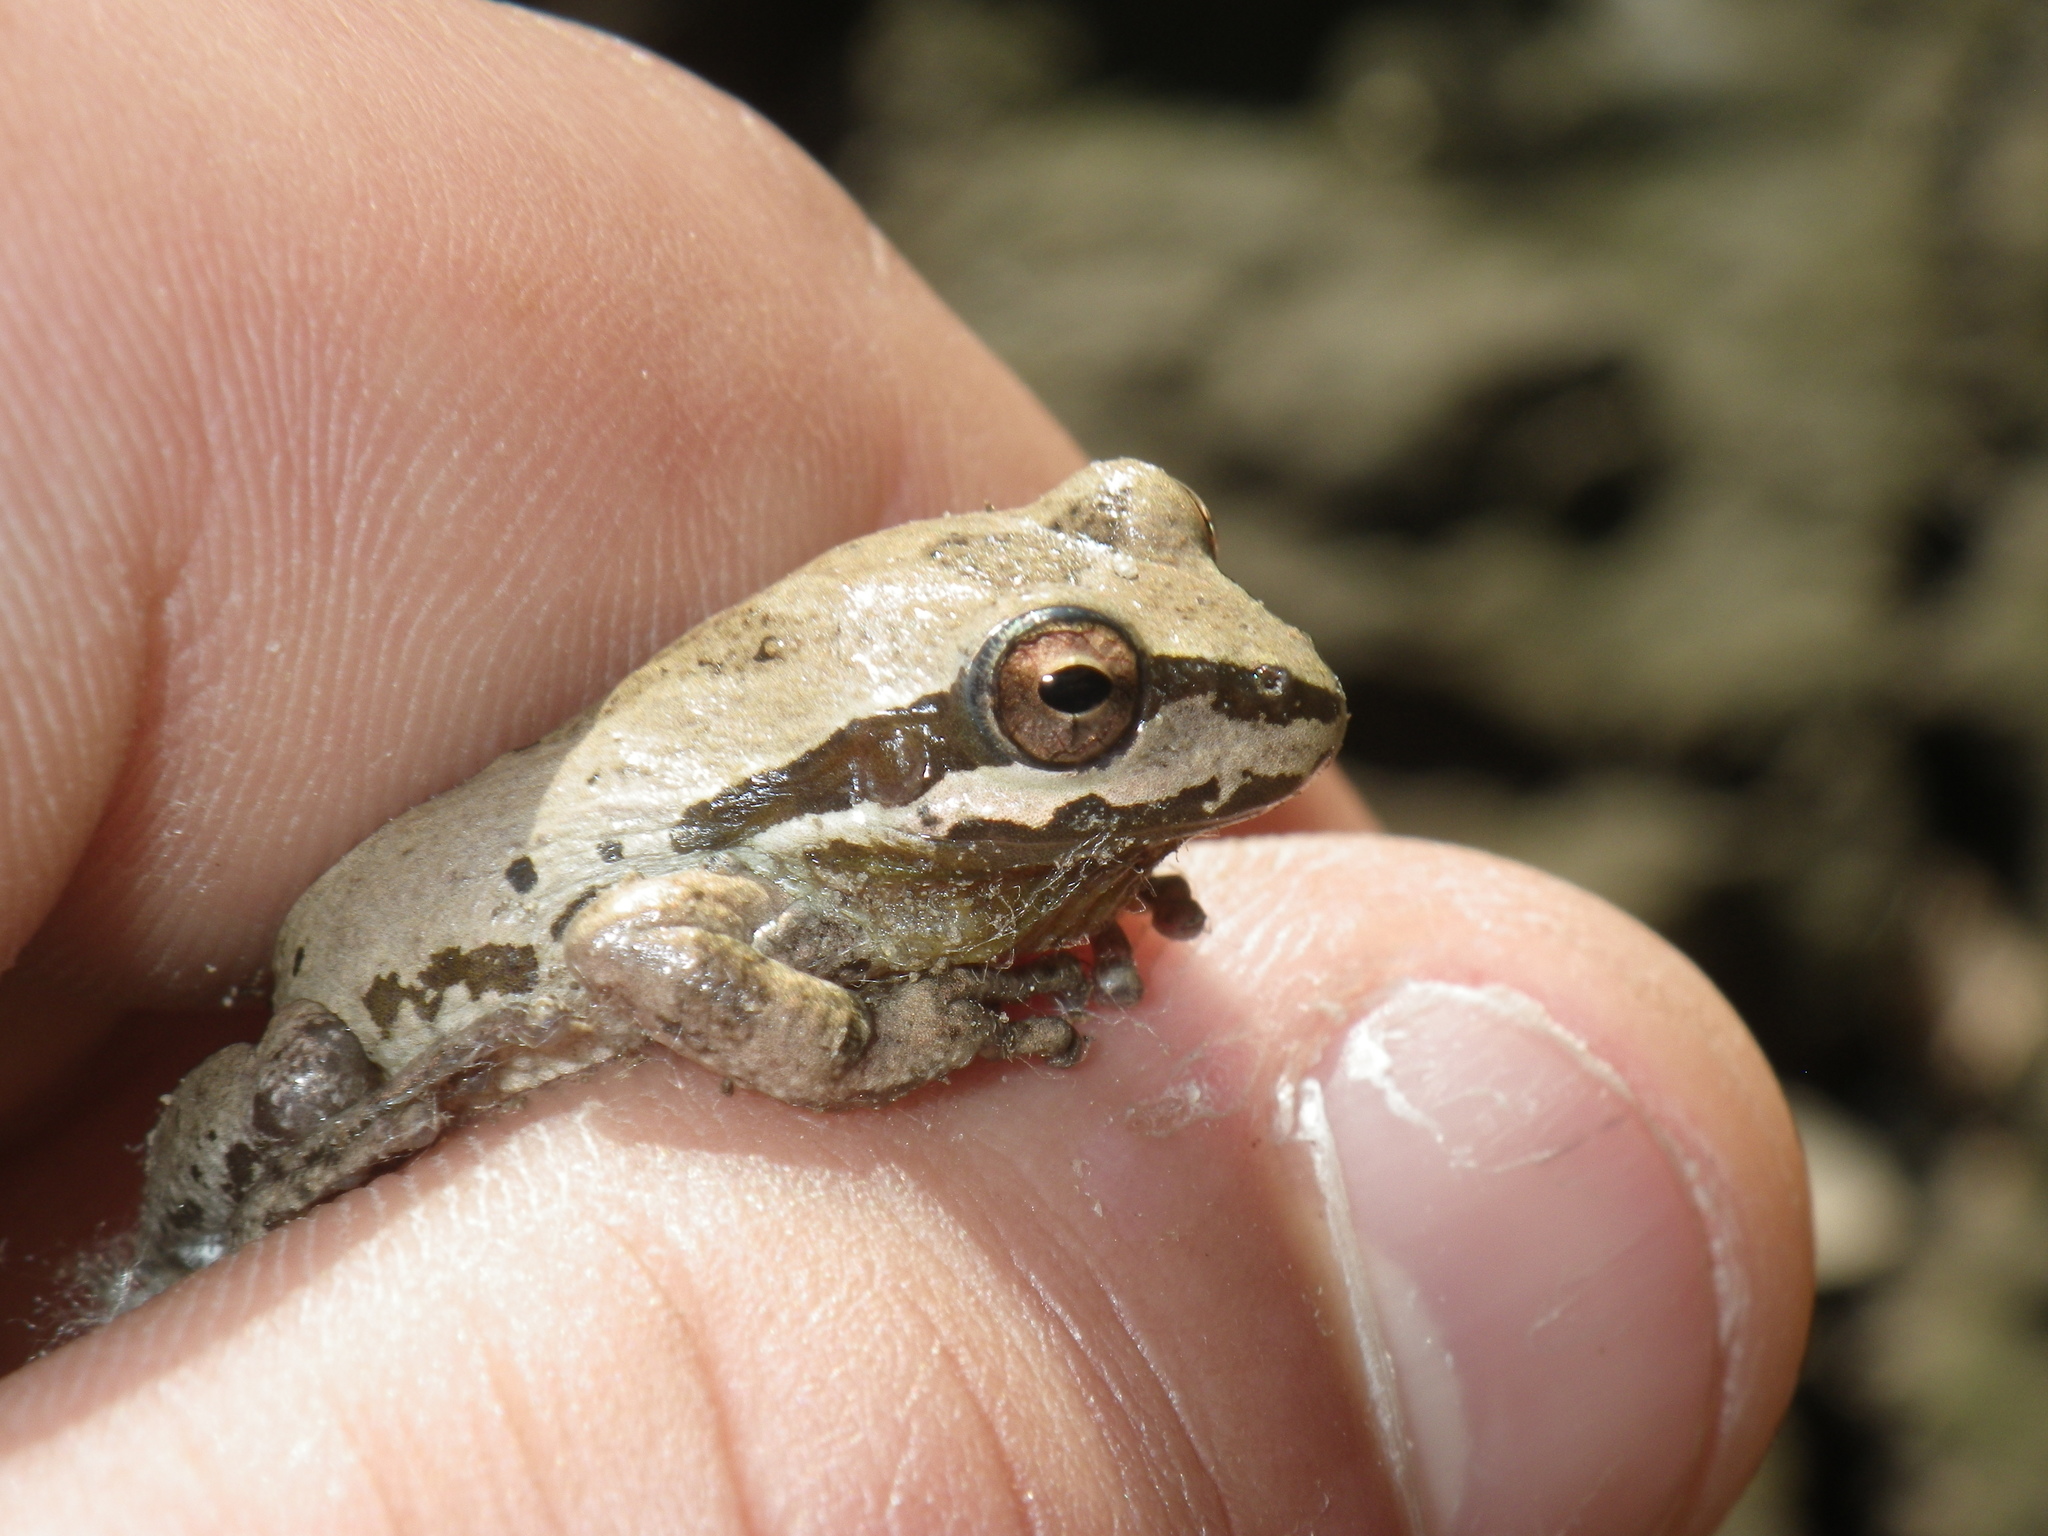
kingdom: Animalia
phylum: Chordata
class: Amphibia
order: Anura
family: Hylidae
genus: Pseudacris
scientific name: Pseudacris regilla
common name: Pacific chorus frog
